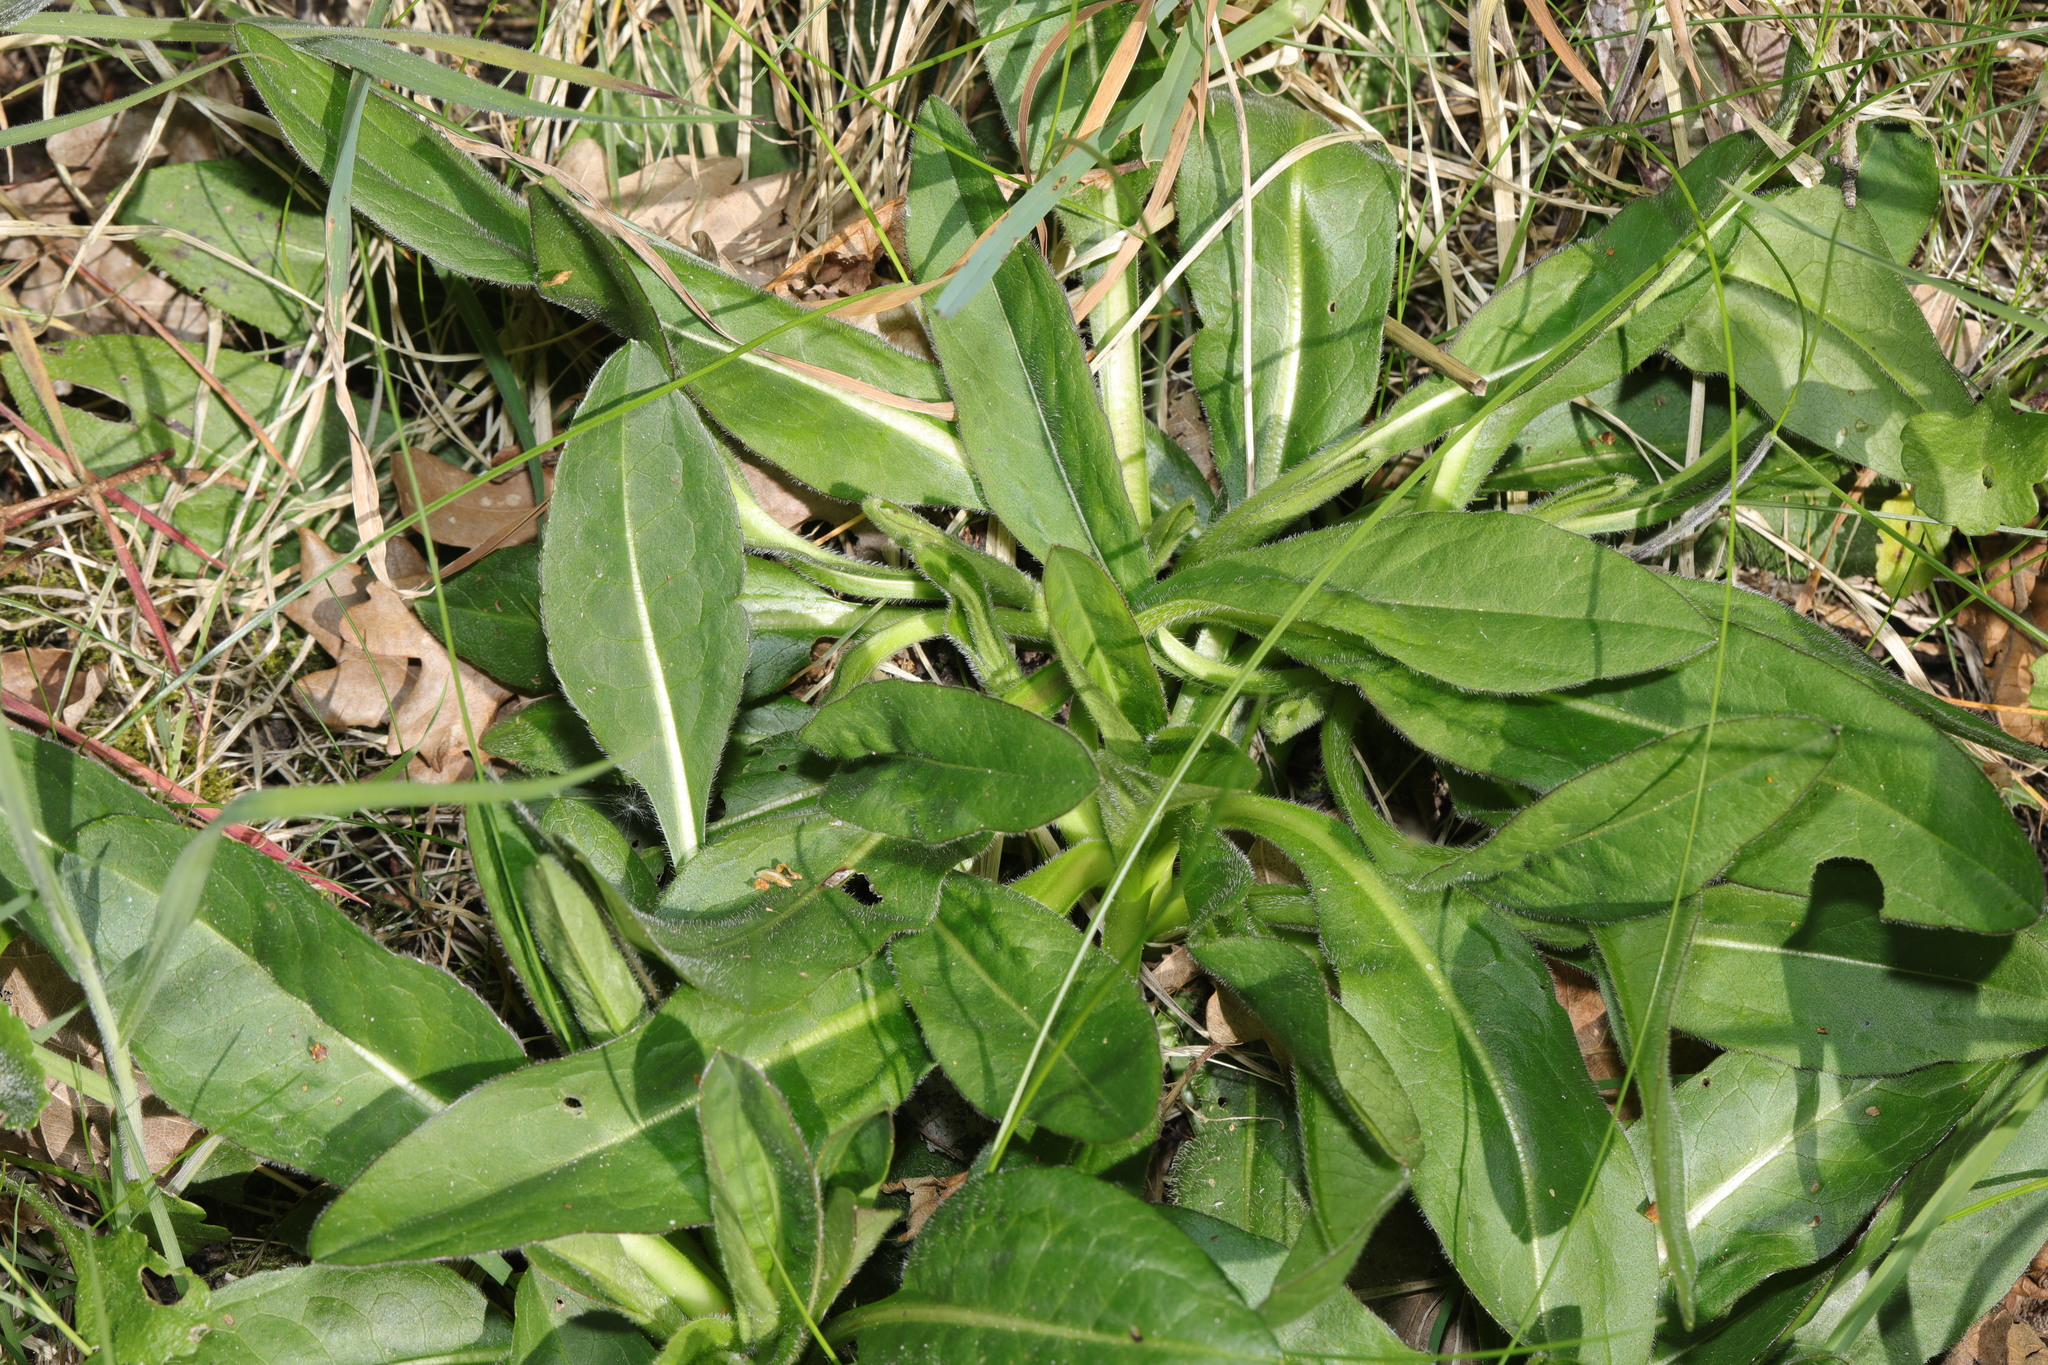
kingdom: Plantae
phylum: Tracheophyta
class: Magnoliopsida
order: Dipsacales
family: Caprifoliaceae
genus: Succisa
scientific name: Succisa pratensis
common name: Devil's-bit
